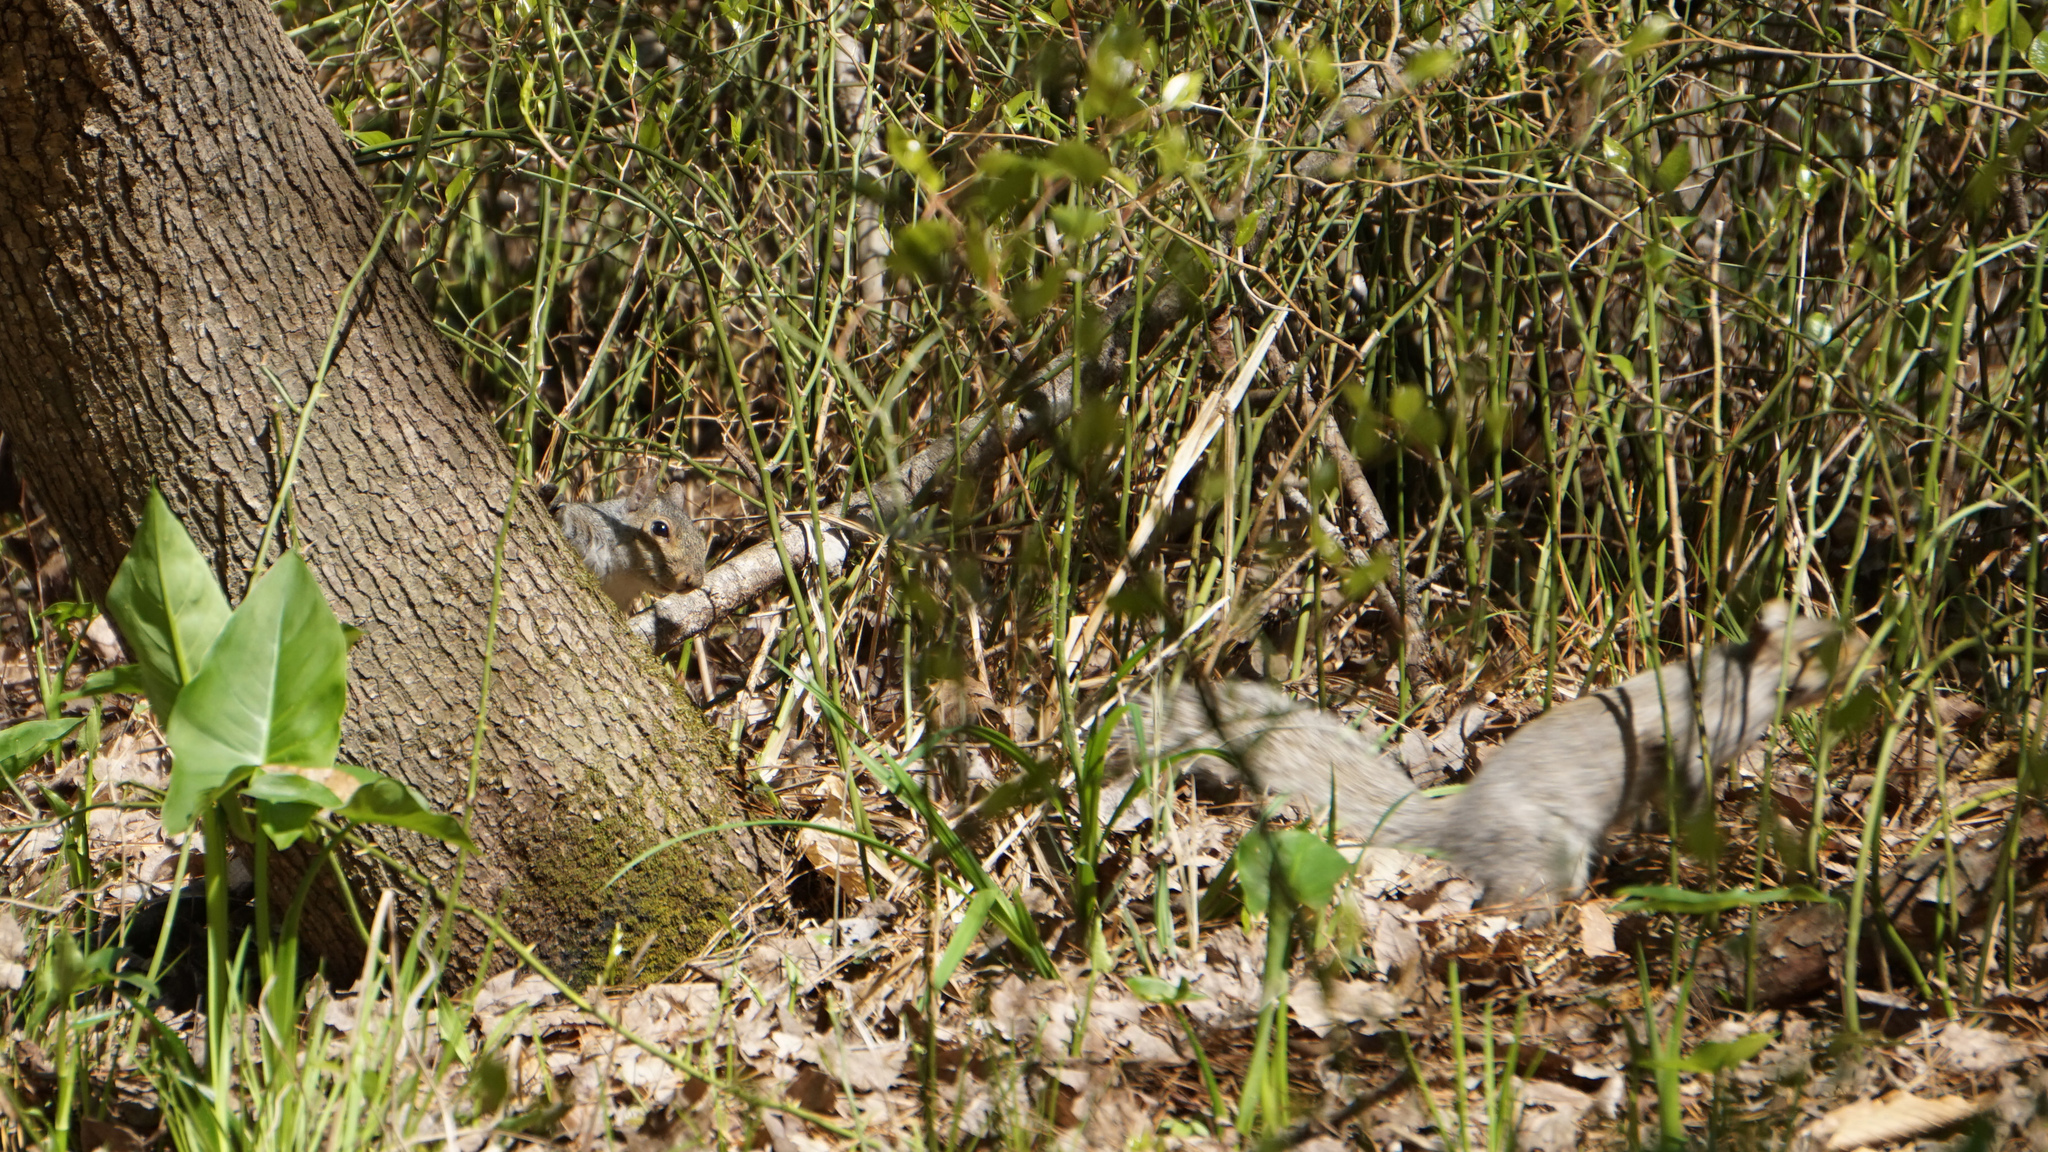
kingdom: Animalia
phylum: Chordata
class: Mammalia
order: Rodentia
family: Sciuridae
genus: Sciurus
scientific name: Sciurus carolinensis
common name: Eastern gray squirrel
